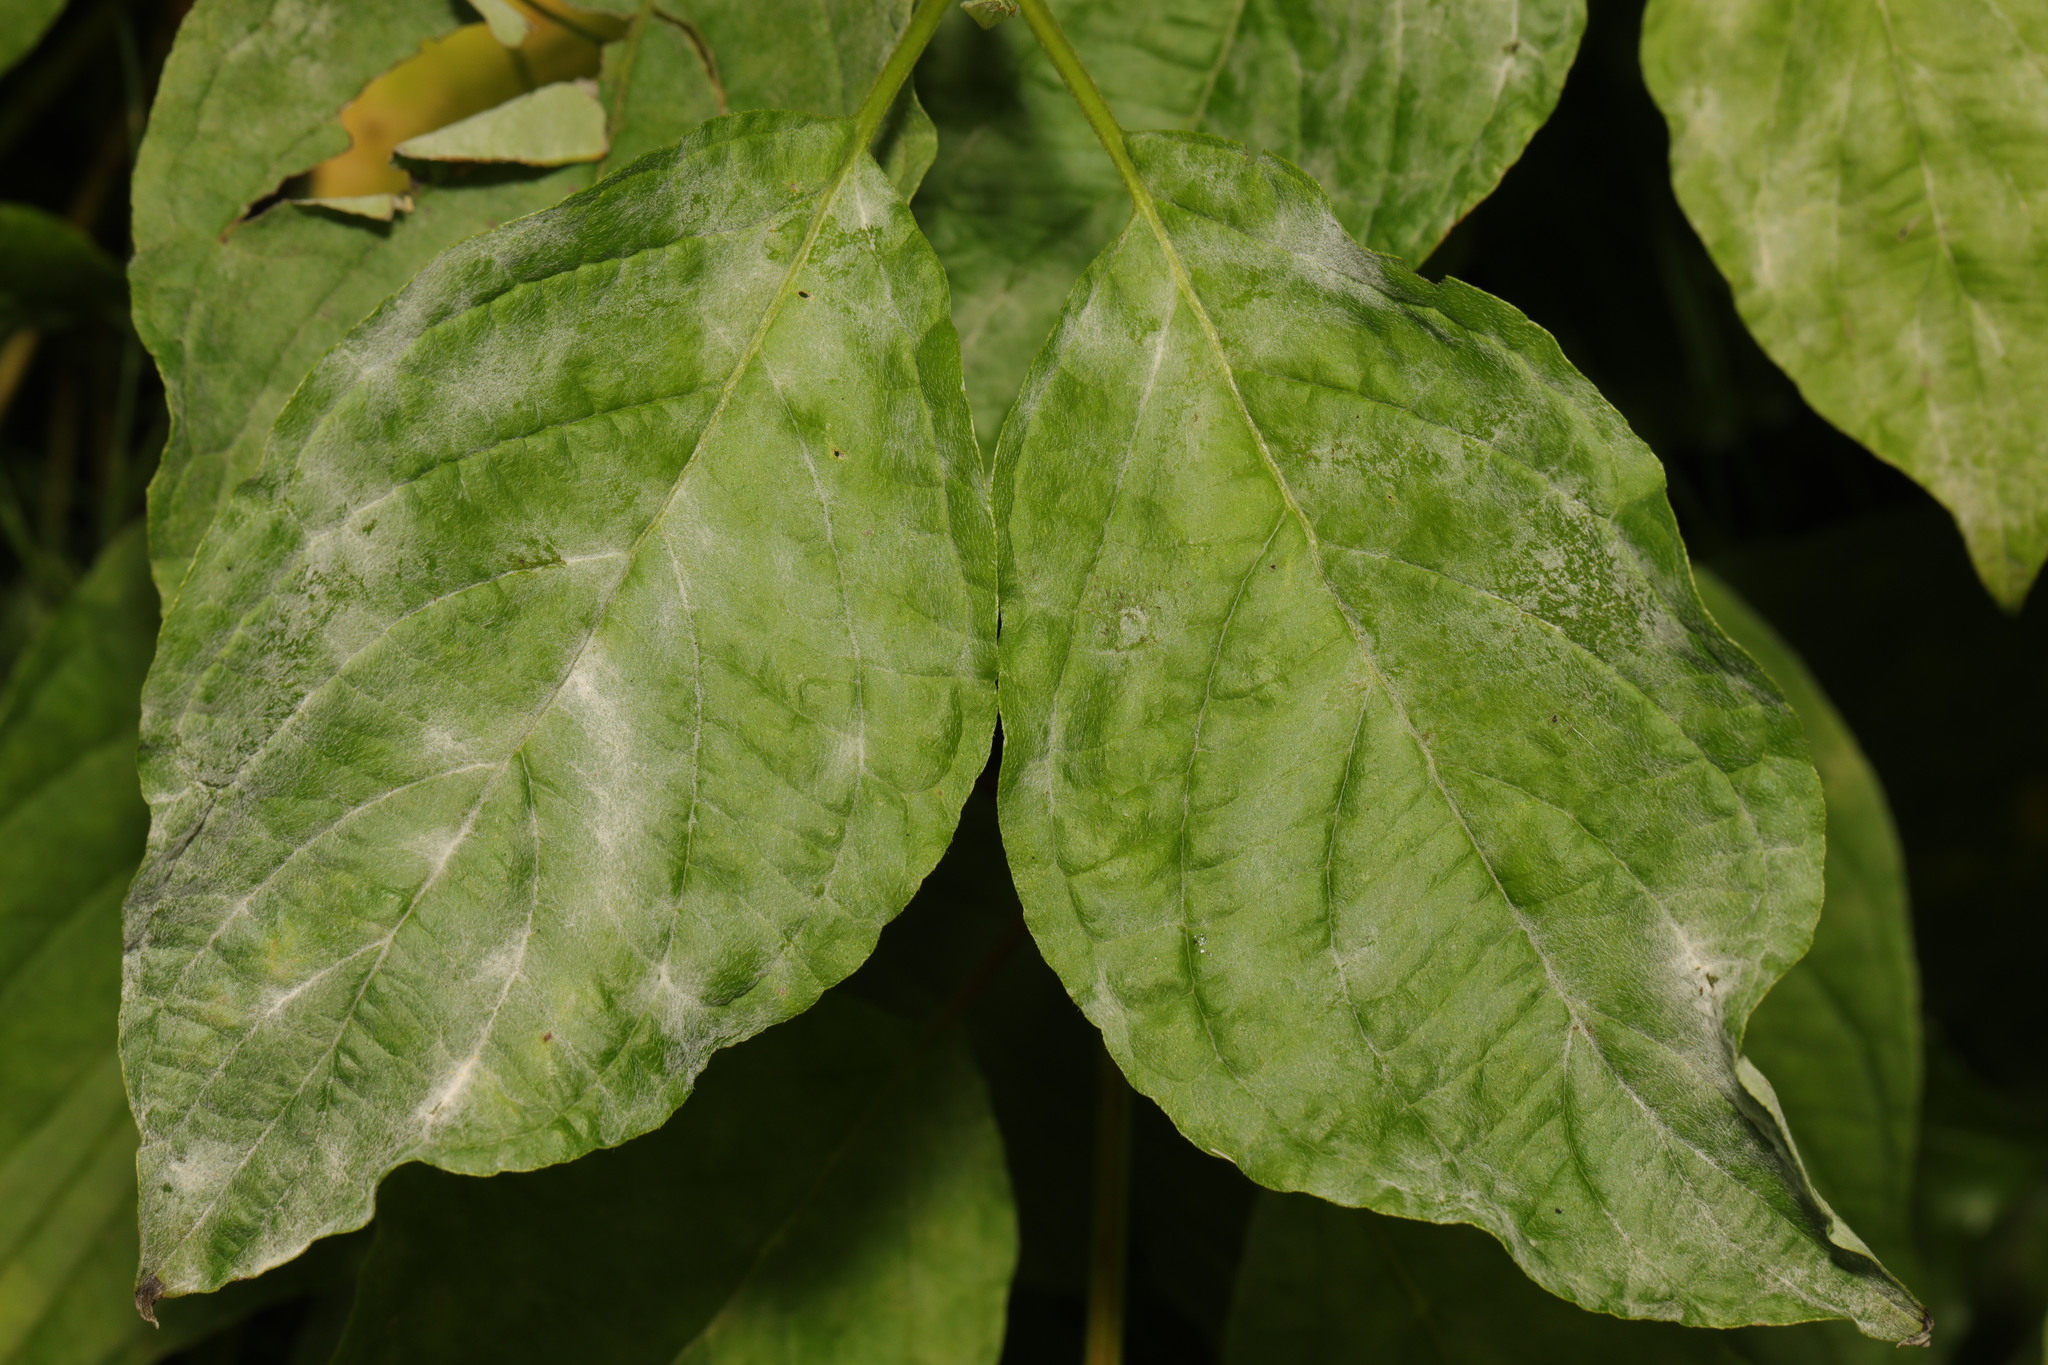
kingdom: Fungi
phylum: Ascomycota
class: Leotiomycetes
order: Helotiales
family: Erysiphaceae
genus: Erysiphe
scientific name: Erysiphe tortilis
